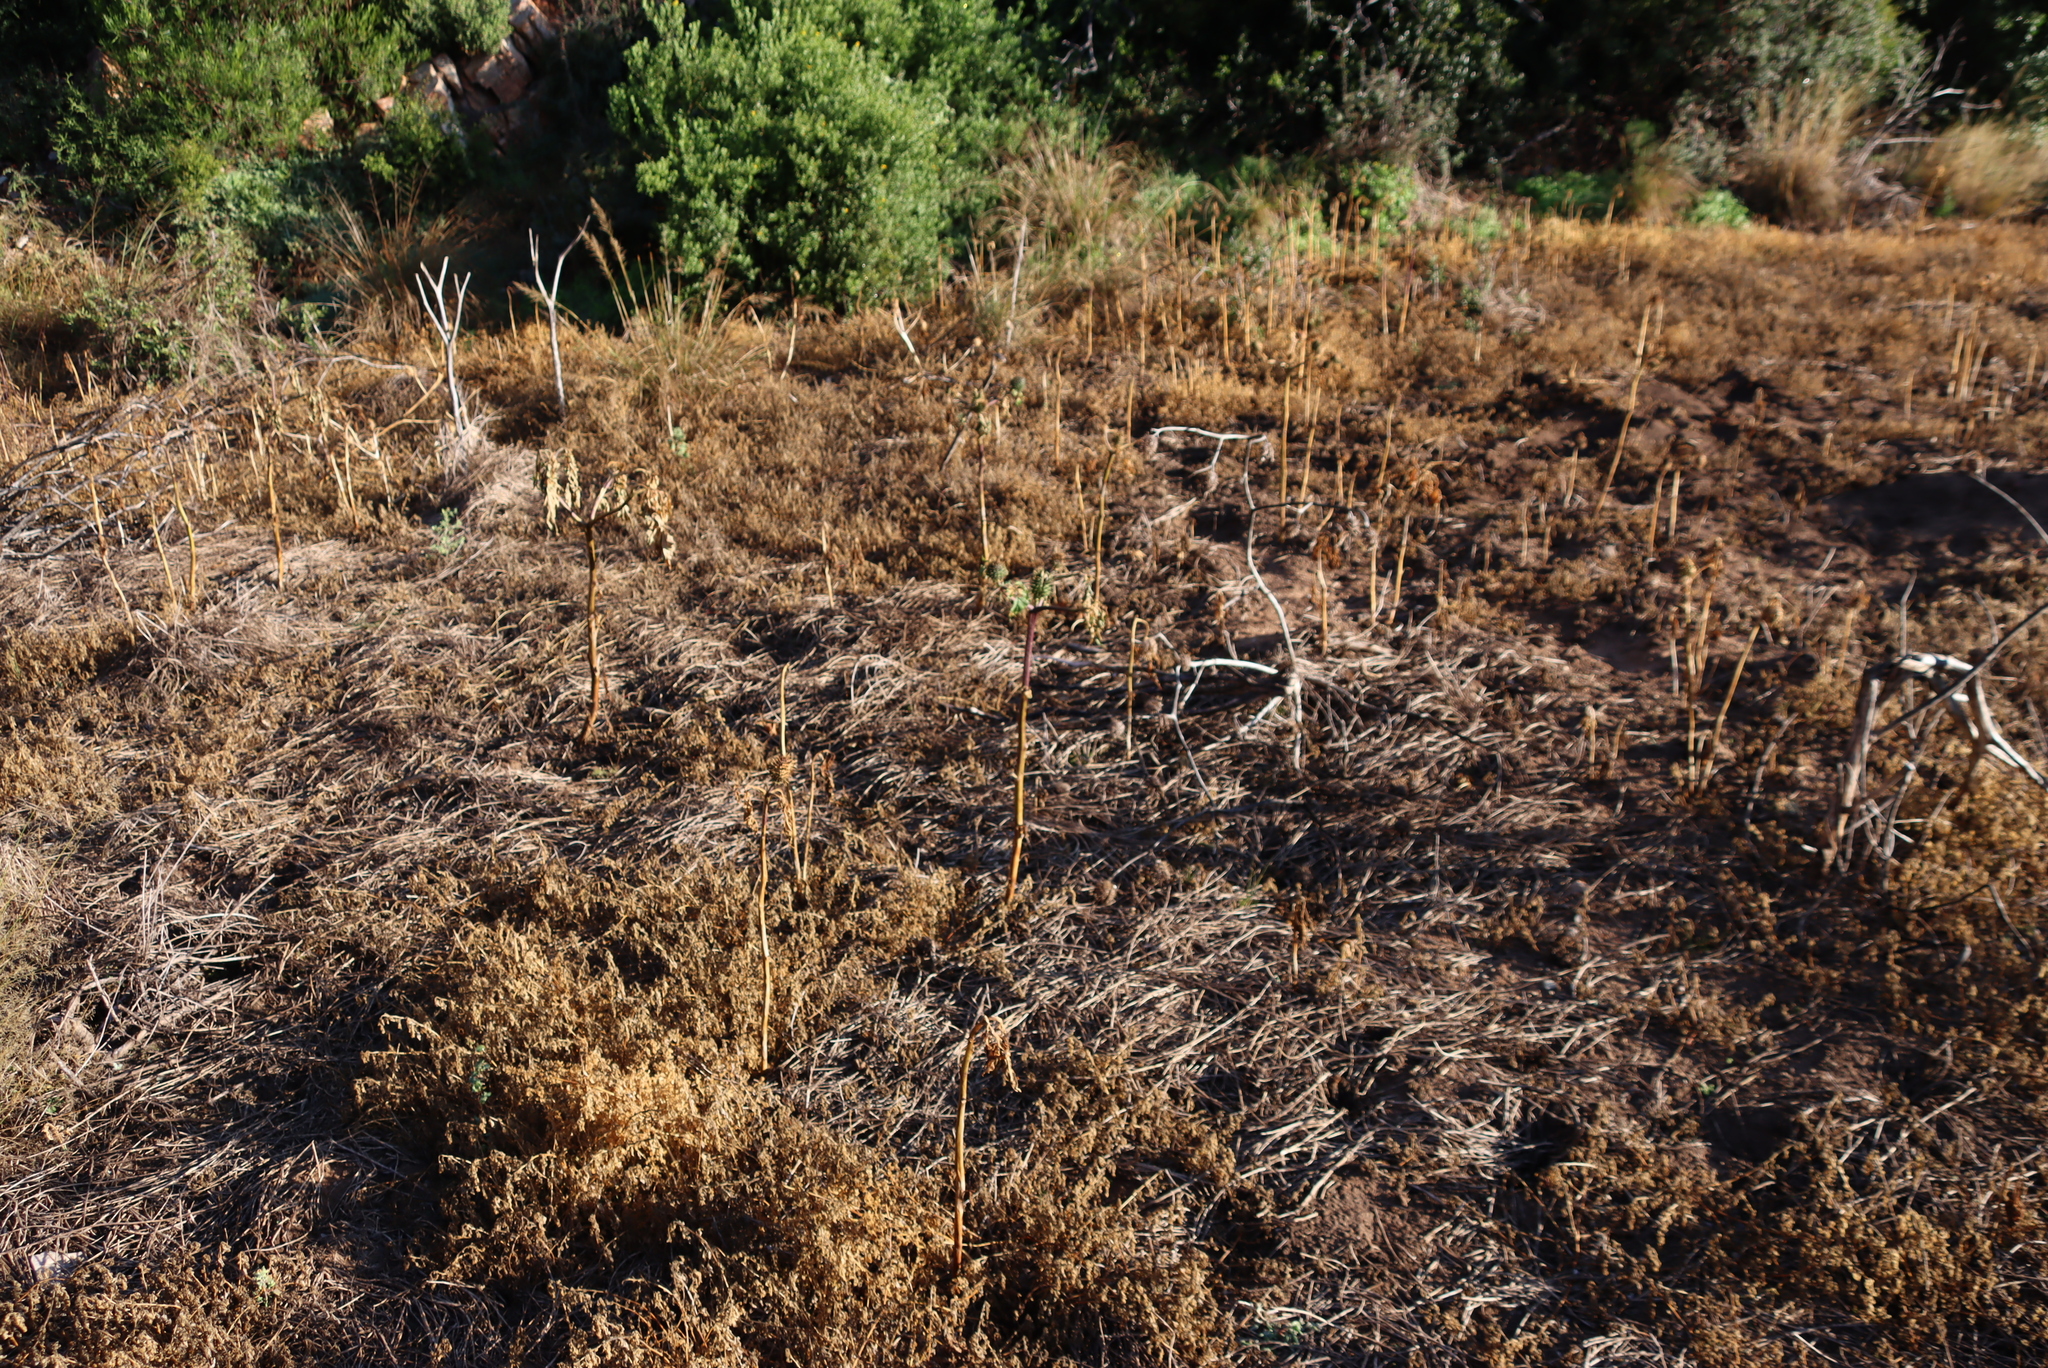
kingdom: Plantae
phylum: Tracheophyta
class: Magnoliopsida
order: Solanales
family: Solanaceae
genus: Datura
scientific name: Datura stramonium
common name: Thorn-apple
